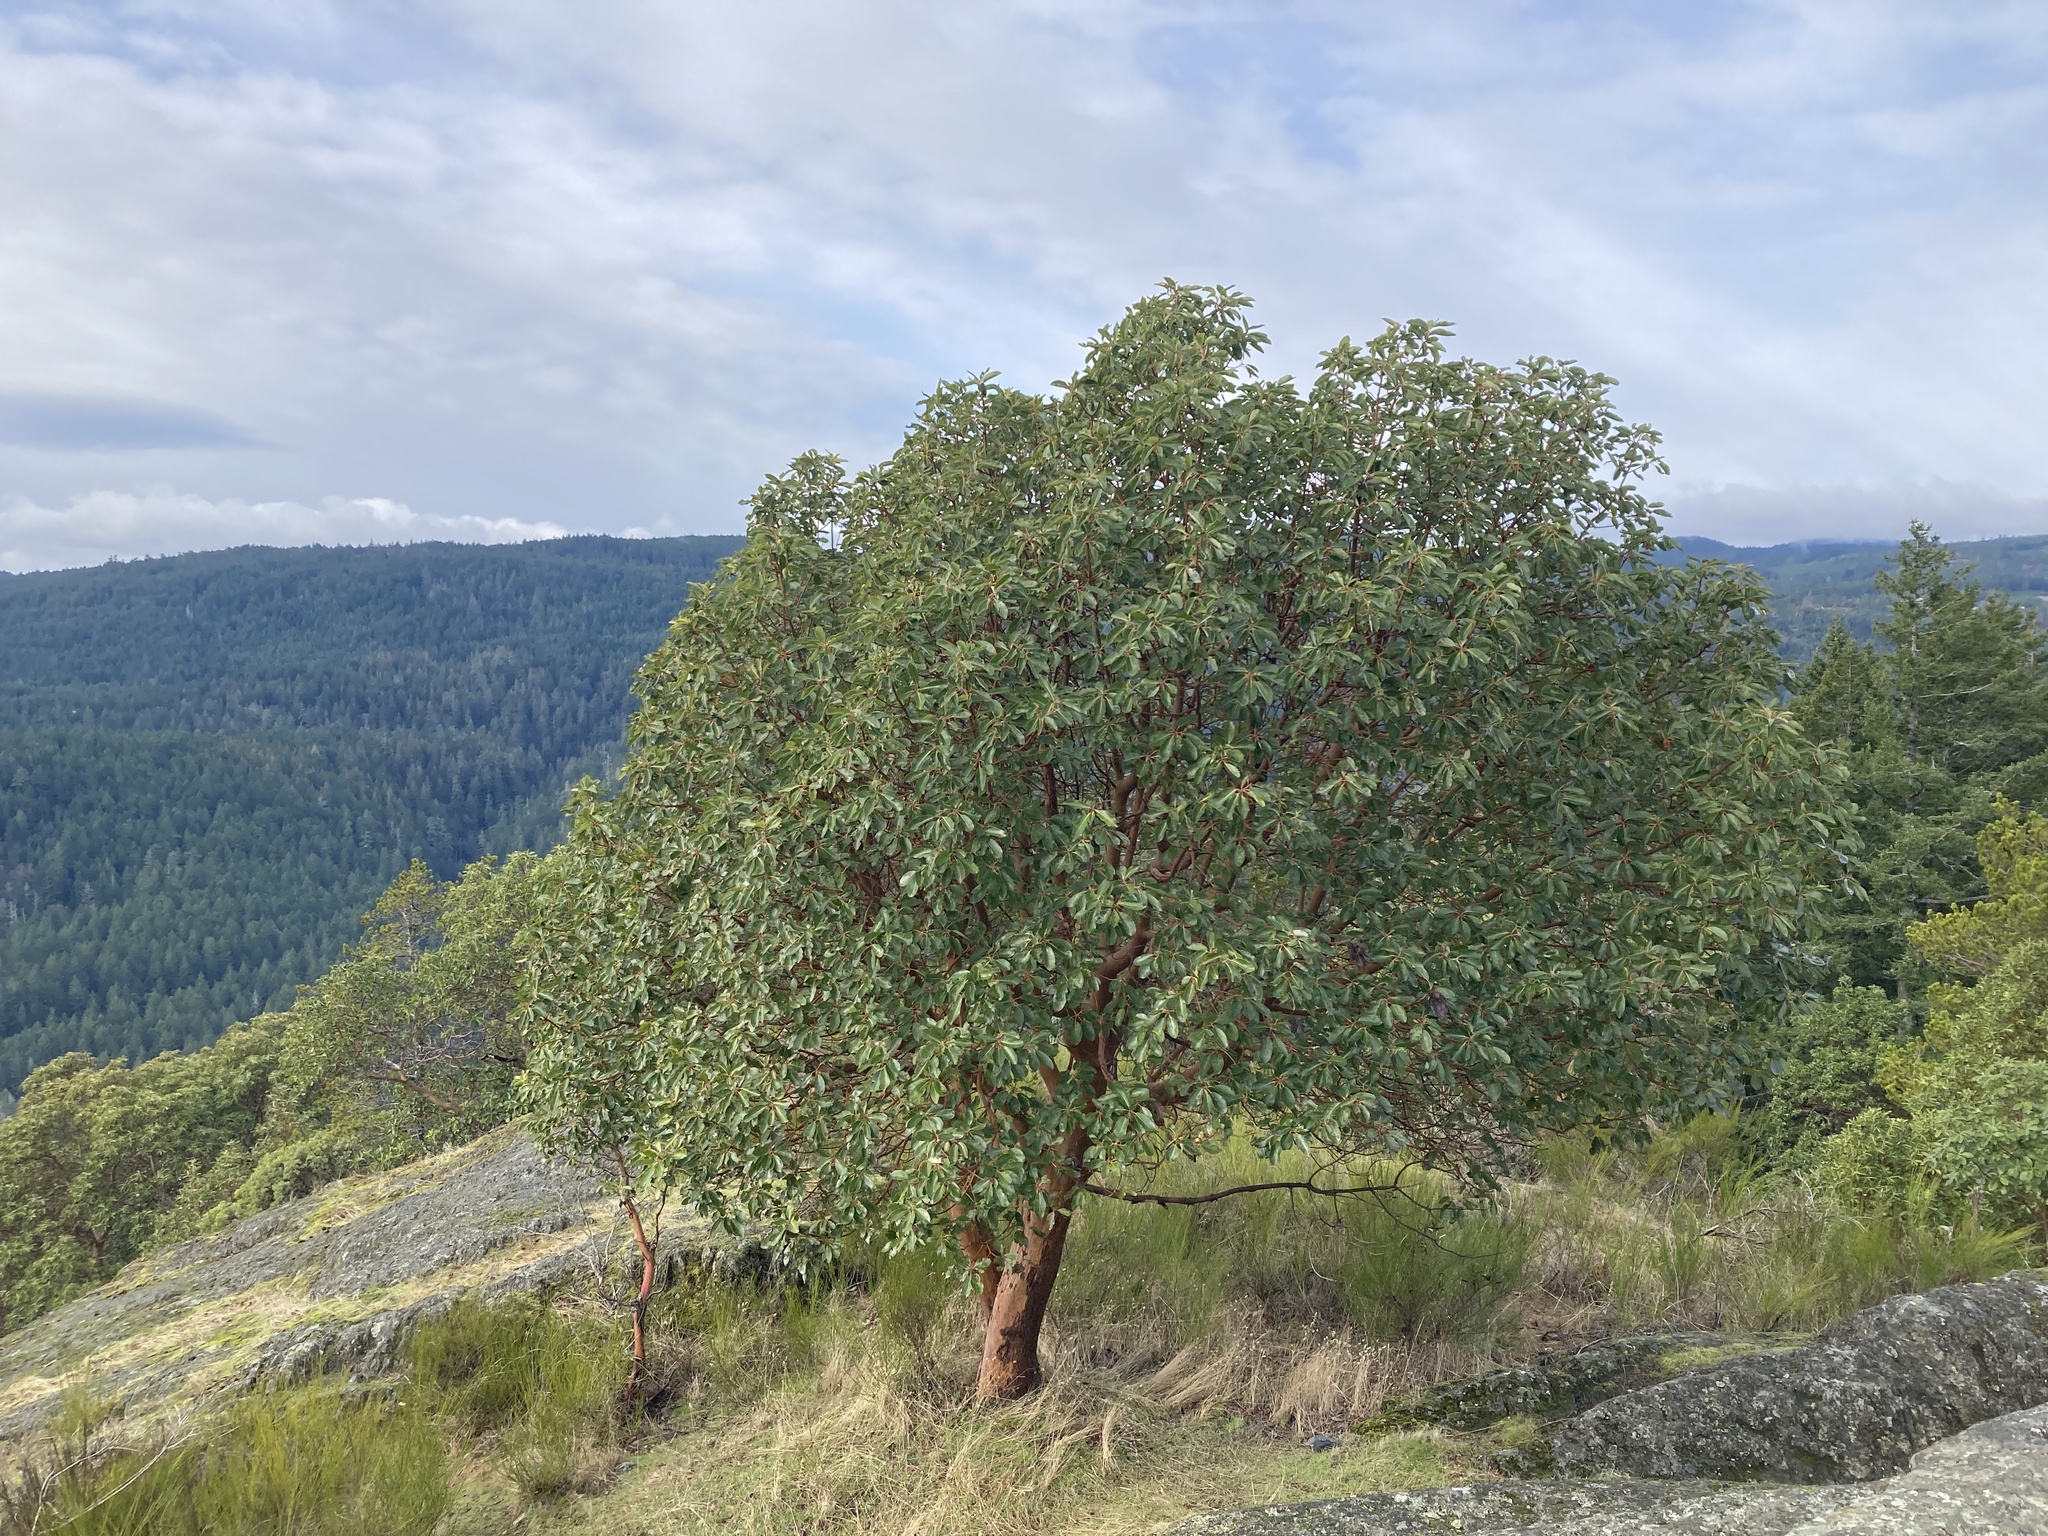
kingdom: Plantae
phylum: Tracheophyta
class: Magnoliopsida
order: Ericales
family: Ericaceae
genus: Arbutus
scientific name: Arbutus menziesii
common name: Pacific madrone
